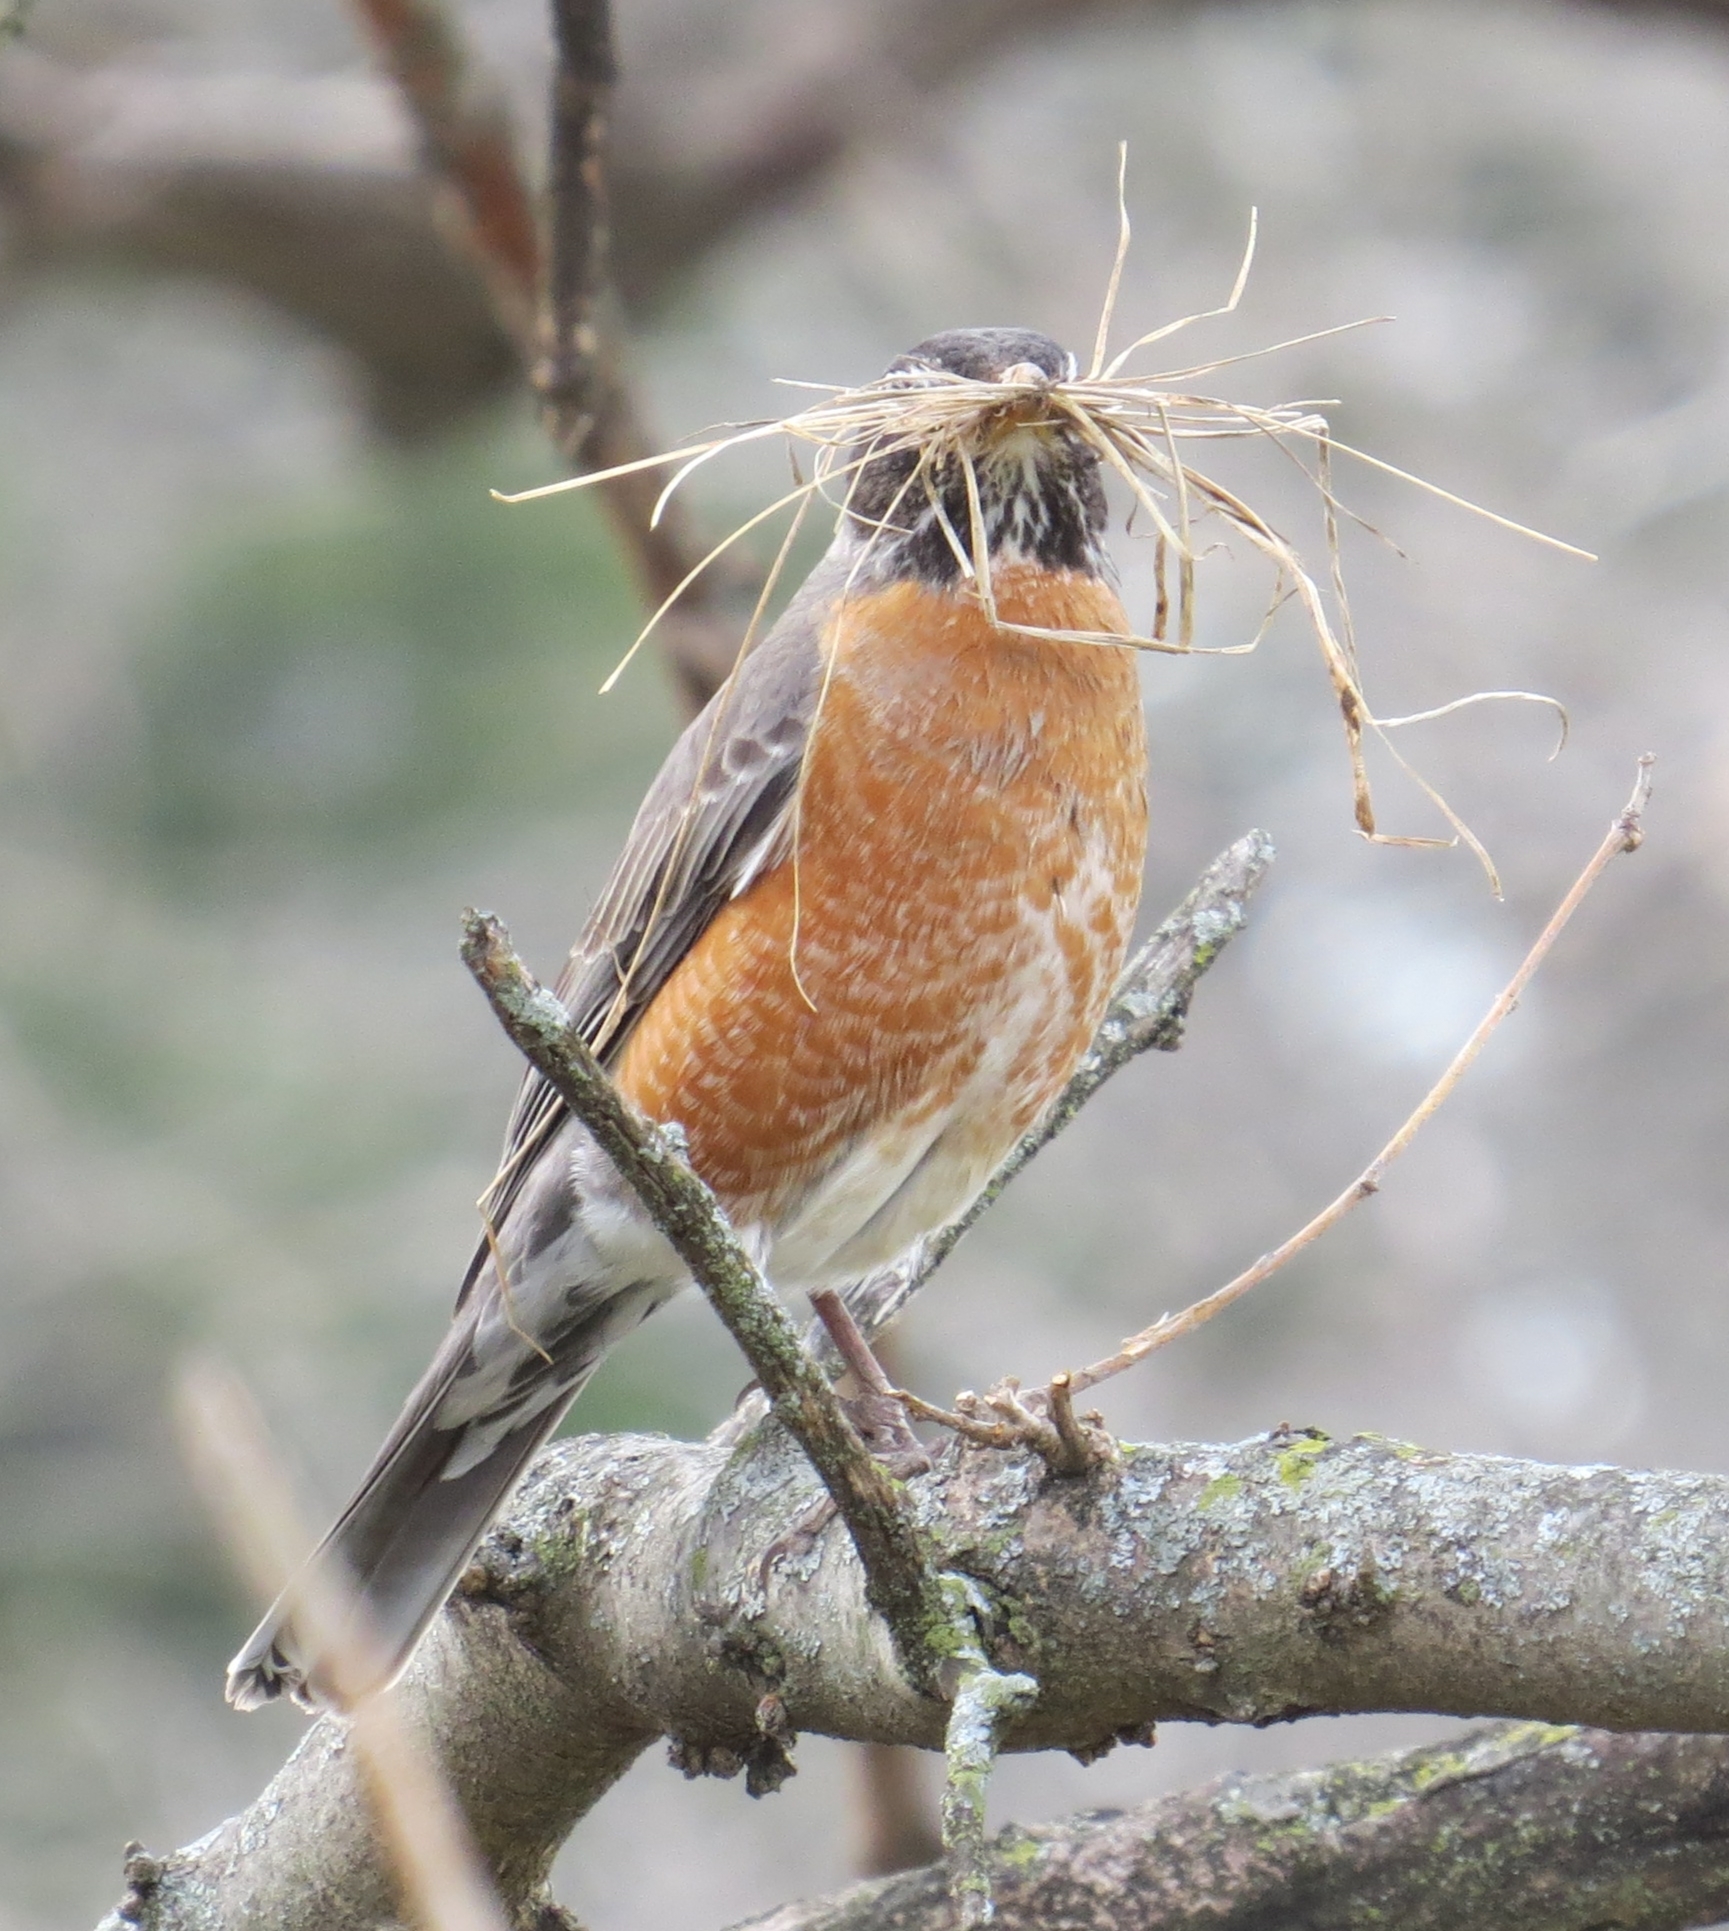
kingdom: Animalia
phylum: Chordata
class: Aves
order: Passeriformes
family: Turdidae
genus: Turdus
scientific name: Turdus migratorius
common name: American robin
